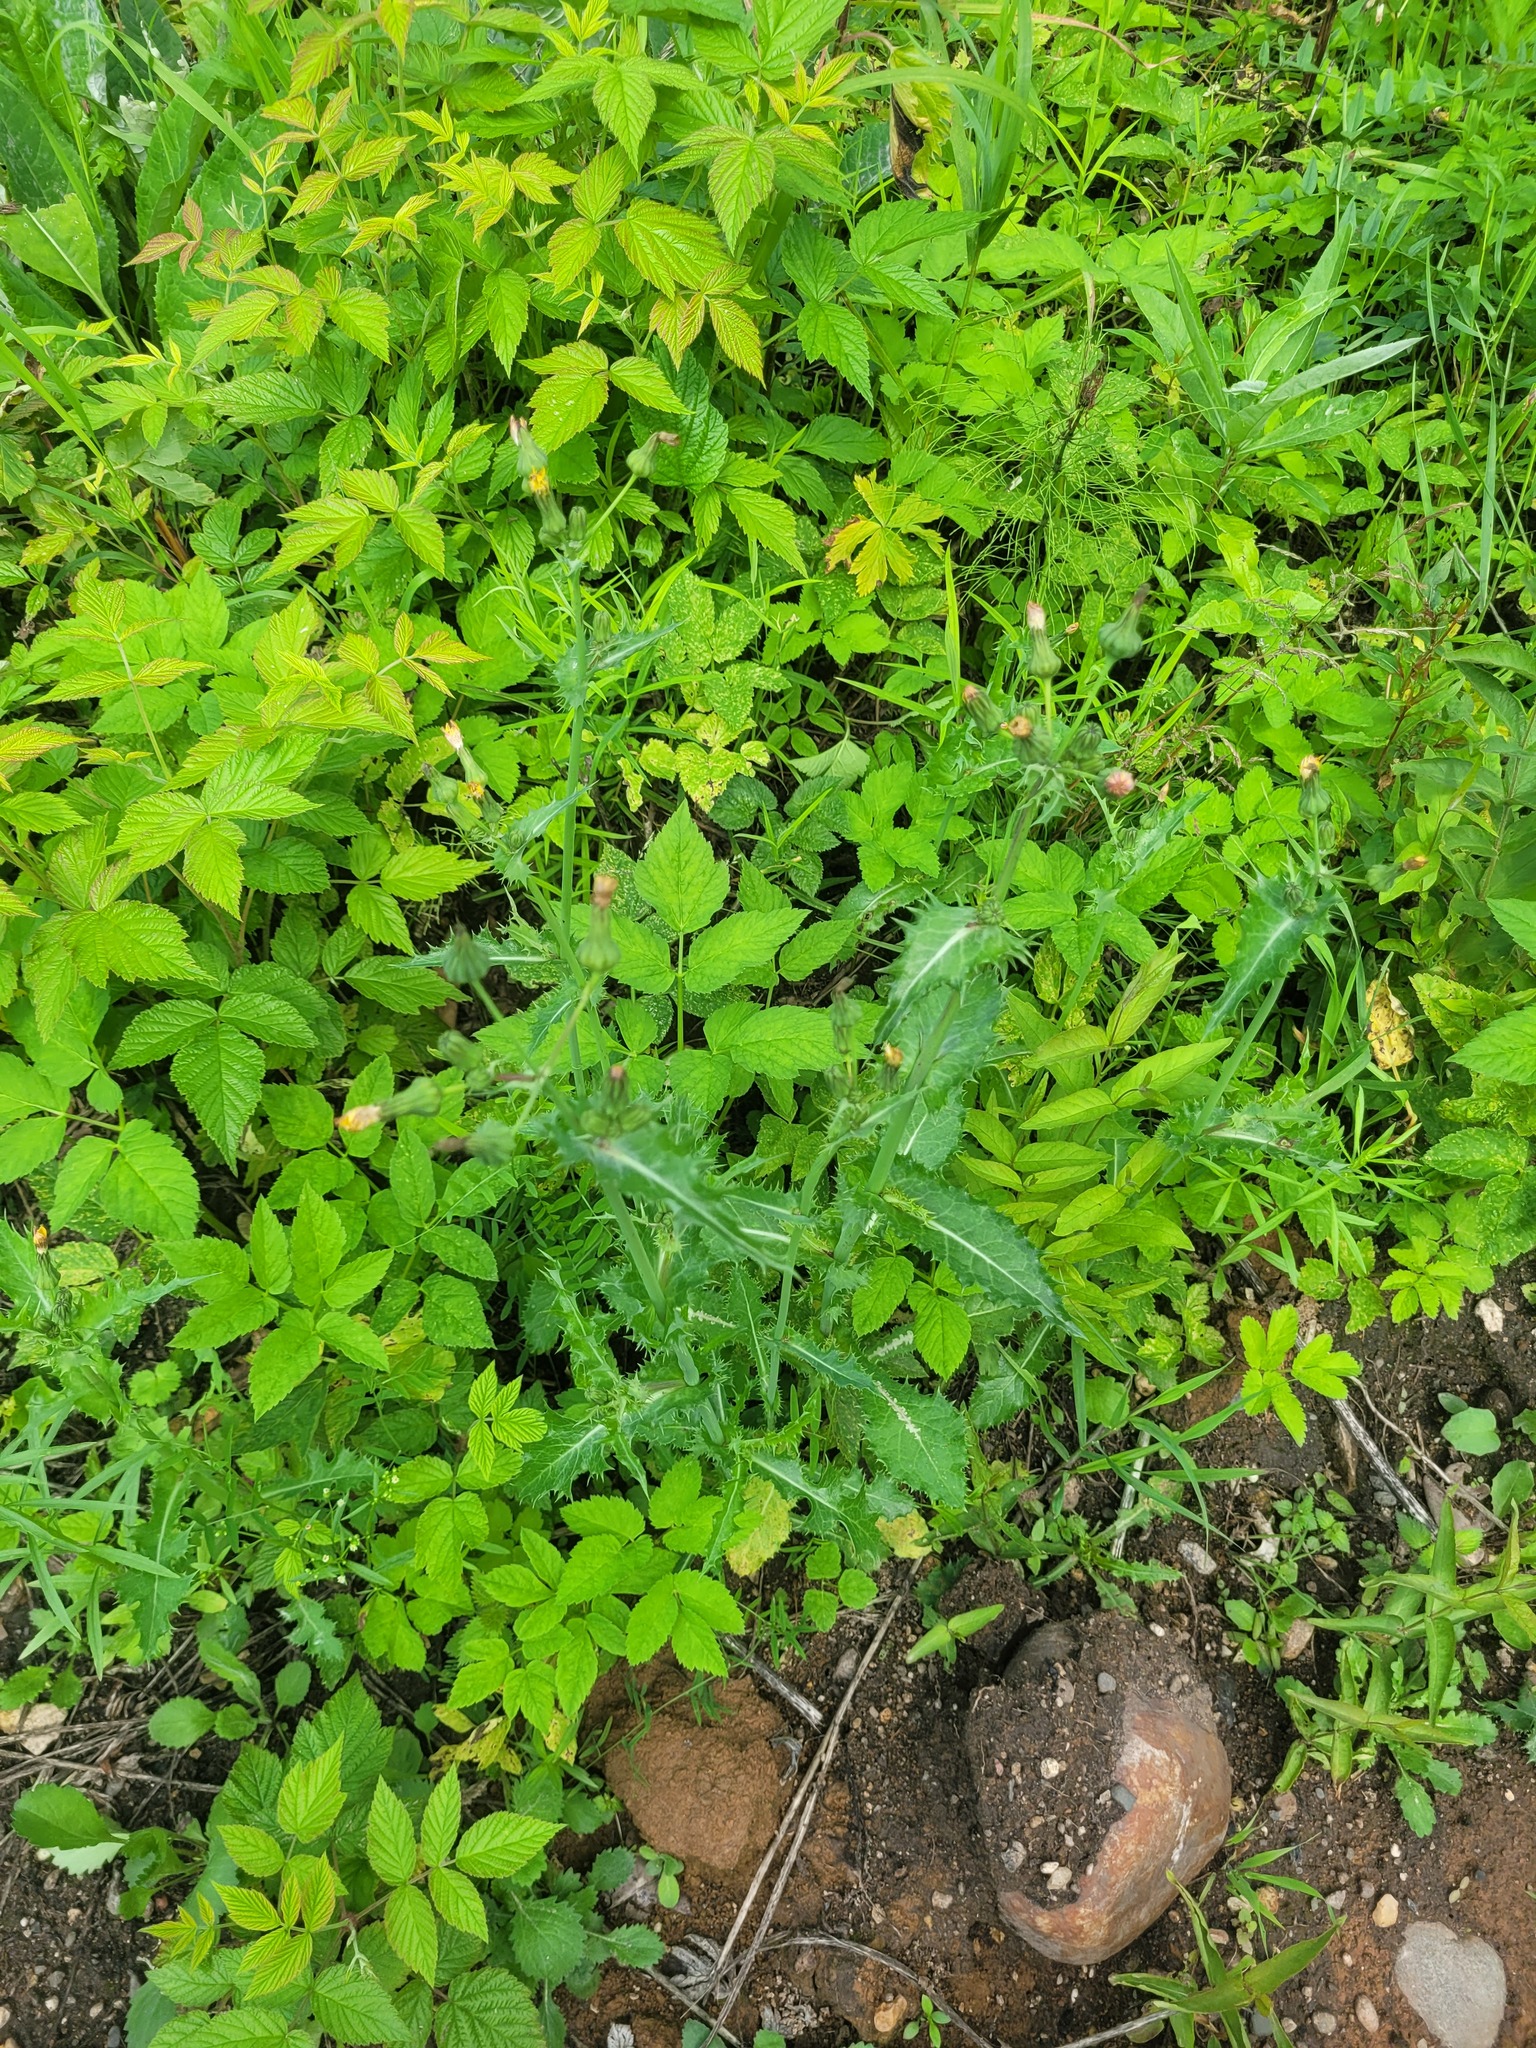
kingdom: Plantae
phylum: Tracheophyta
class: Magnoliopsida
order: Asterales
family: Asteraceae
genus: Sonchus
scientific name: Sonchus asper
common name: Prickly sow-thistle
